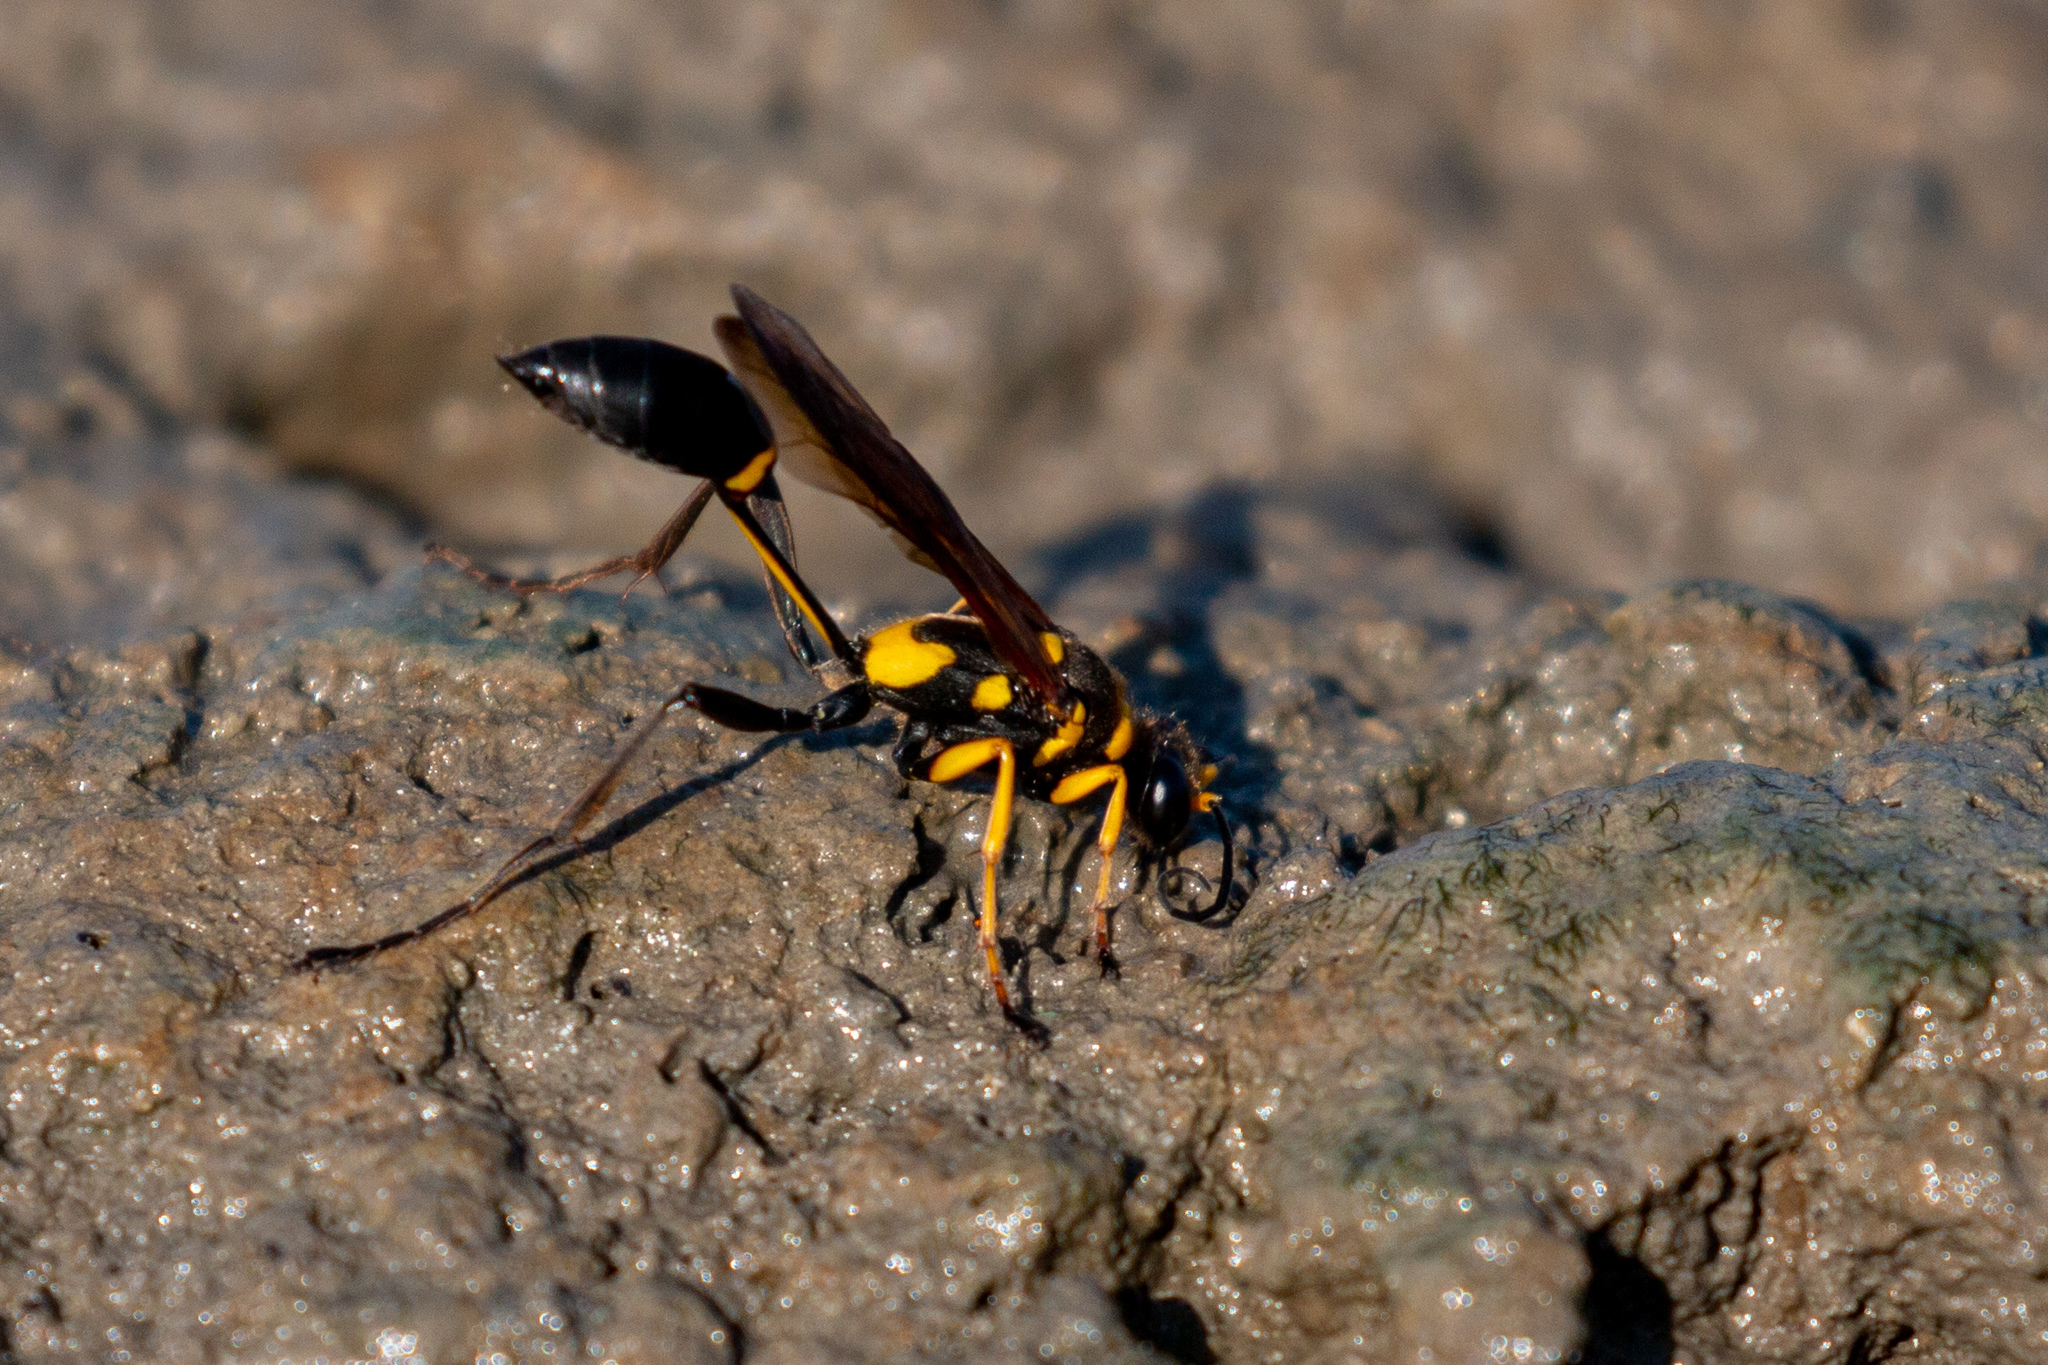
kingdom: Animalia
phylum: Arthropoda
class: Insecta
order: Hymenoptera
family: Sphecidae
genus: Sceliphron
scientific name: Sceliphron asiaticum
